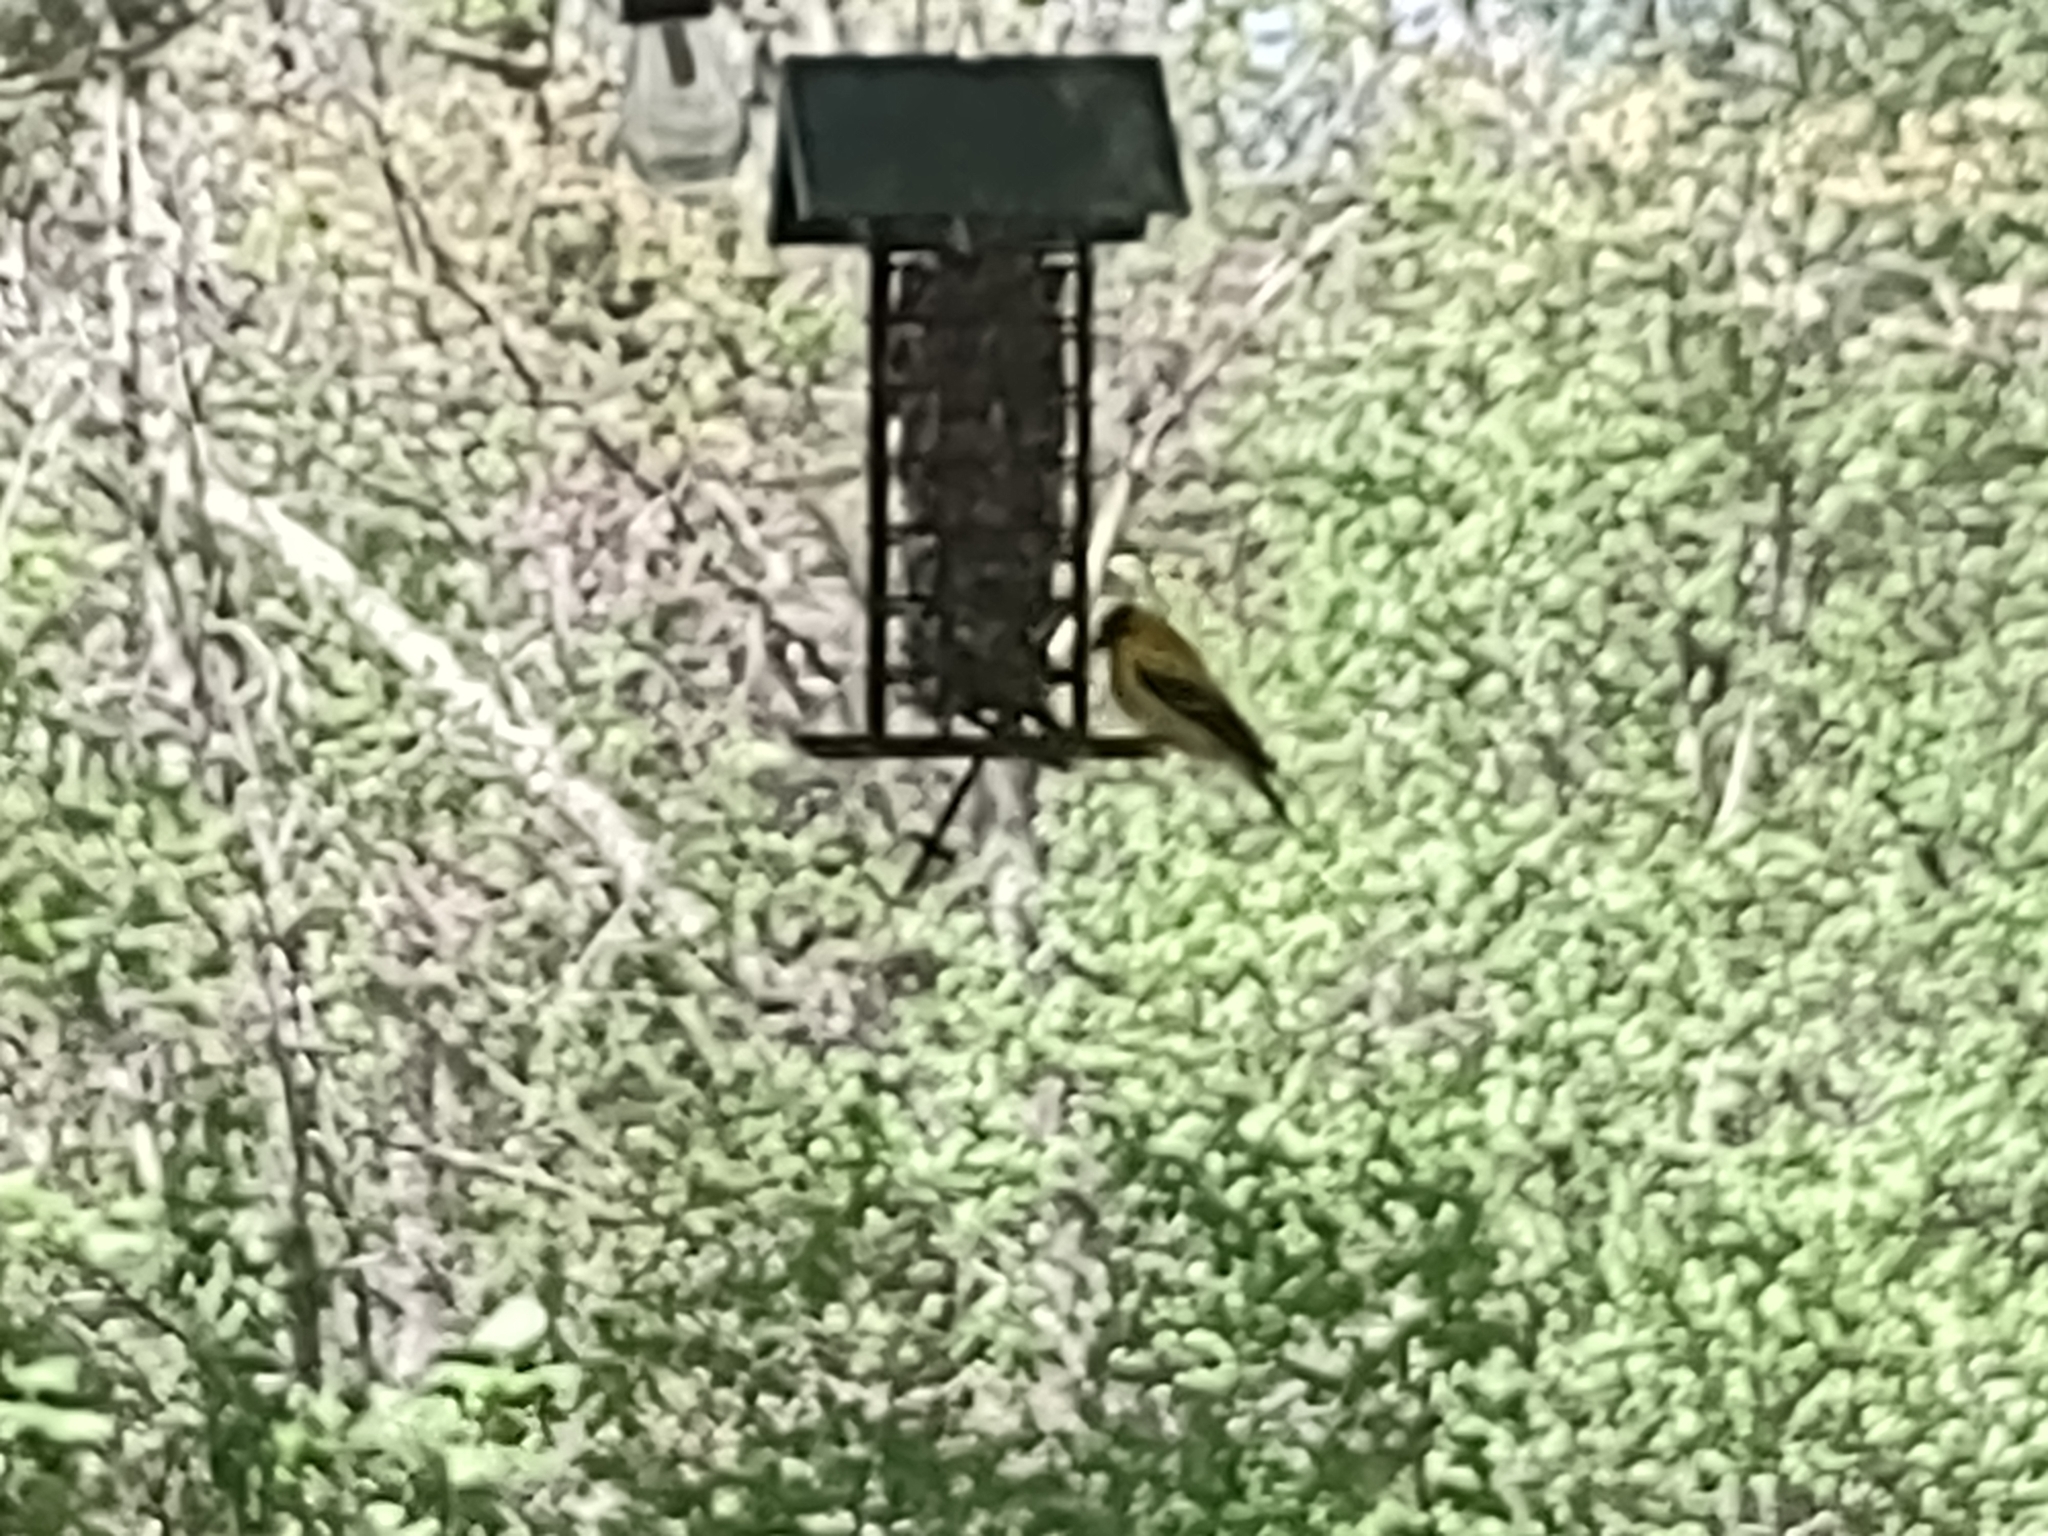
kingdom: Animalia
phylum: Chordata
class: Aves
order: Passeriformes
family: Fringillidae
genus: Spinus
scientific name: Spinus tristis
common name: American goldfinch
